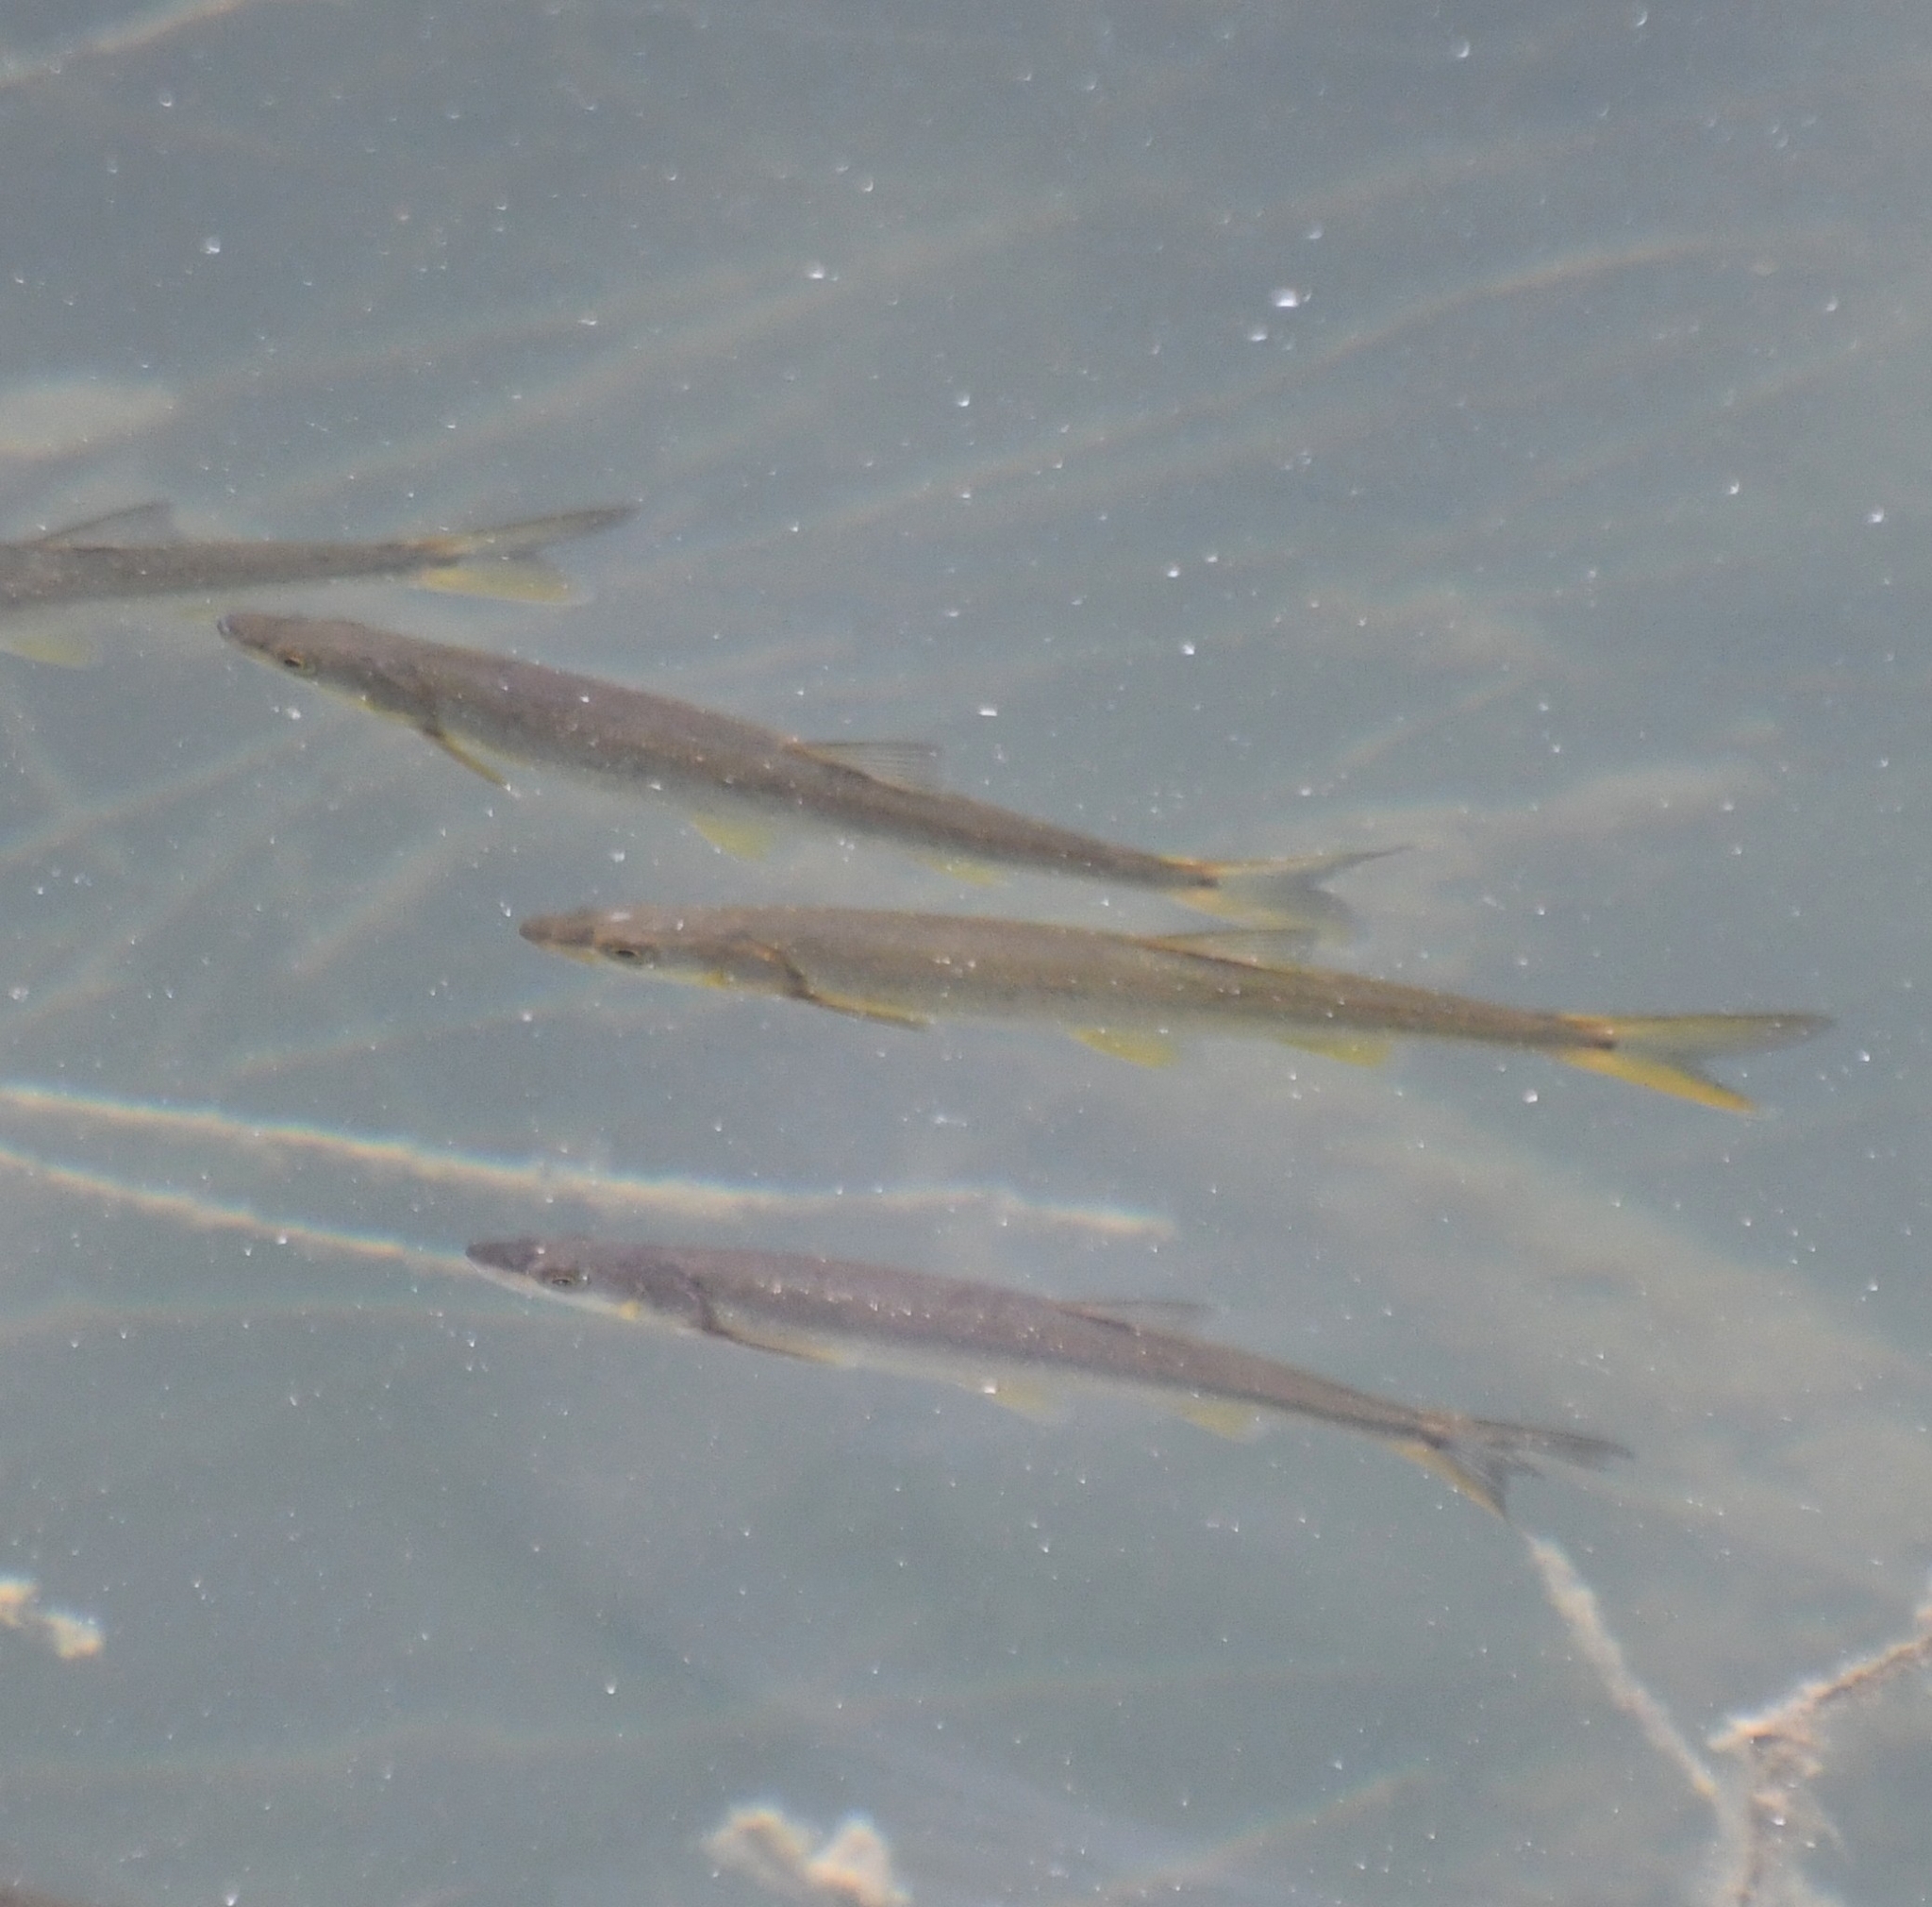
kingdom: Animalia
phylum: Chordata
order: Cypriniformes
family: Cyprinidae
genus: Ptychocheilus
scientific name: Ptychocheilus oregonensis
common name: Northern pikeminnow
